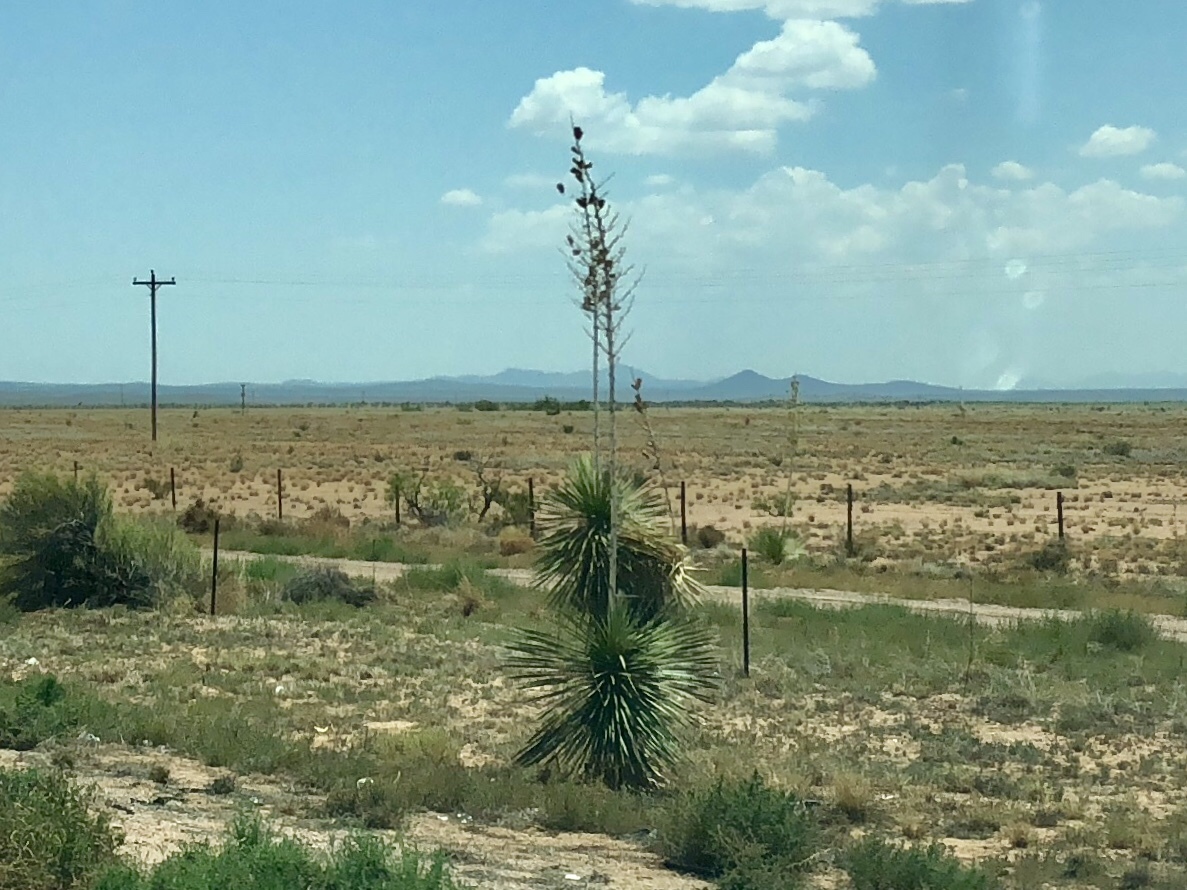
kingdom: Plantae
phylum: Tracheophyta
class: Liliopsida
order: Asparagales
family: Asparagaceae
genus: Yucca
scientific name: Yucca elata
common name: Palmella
